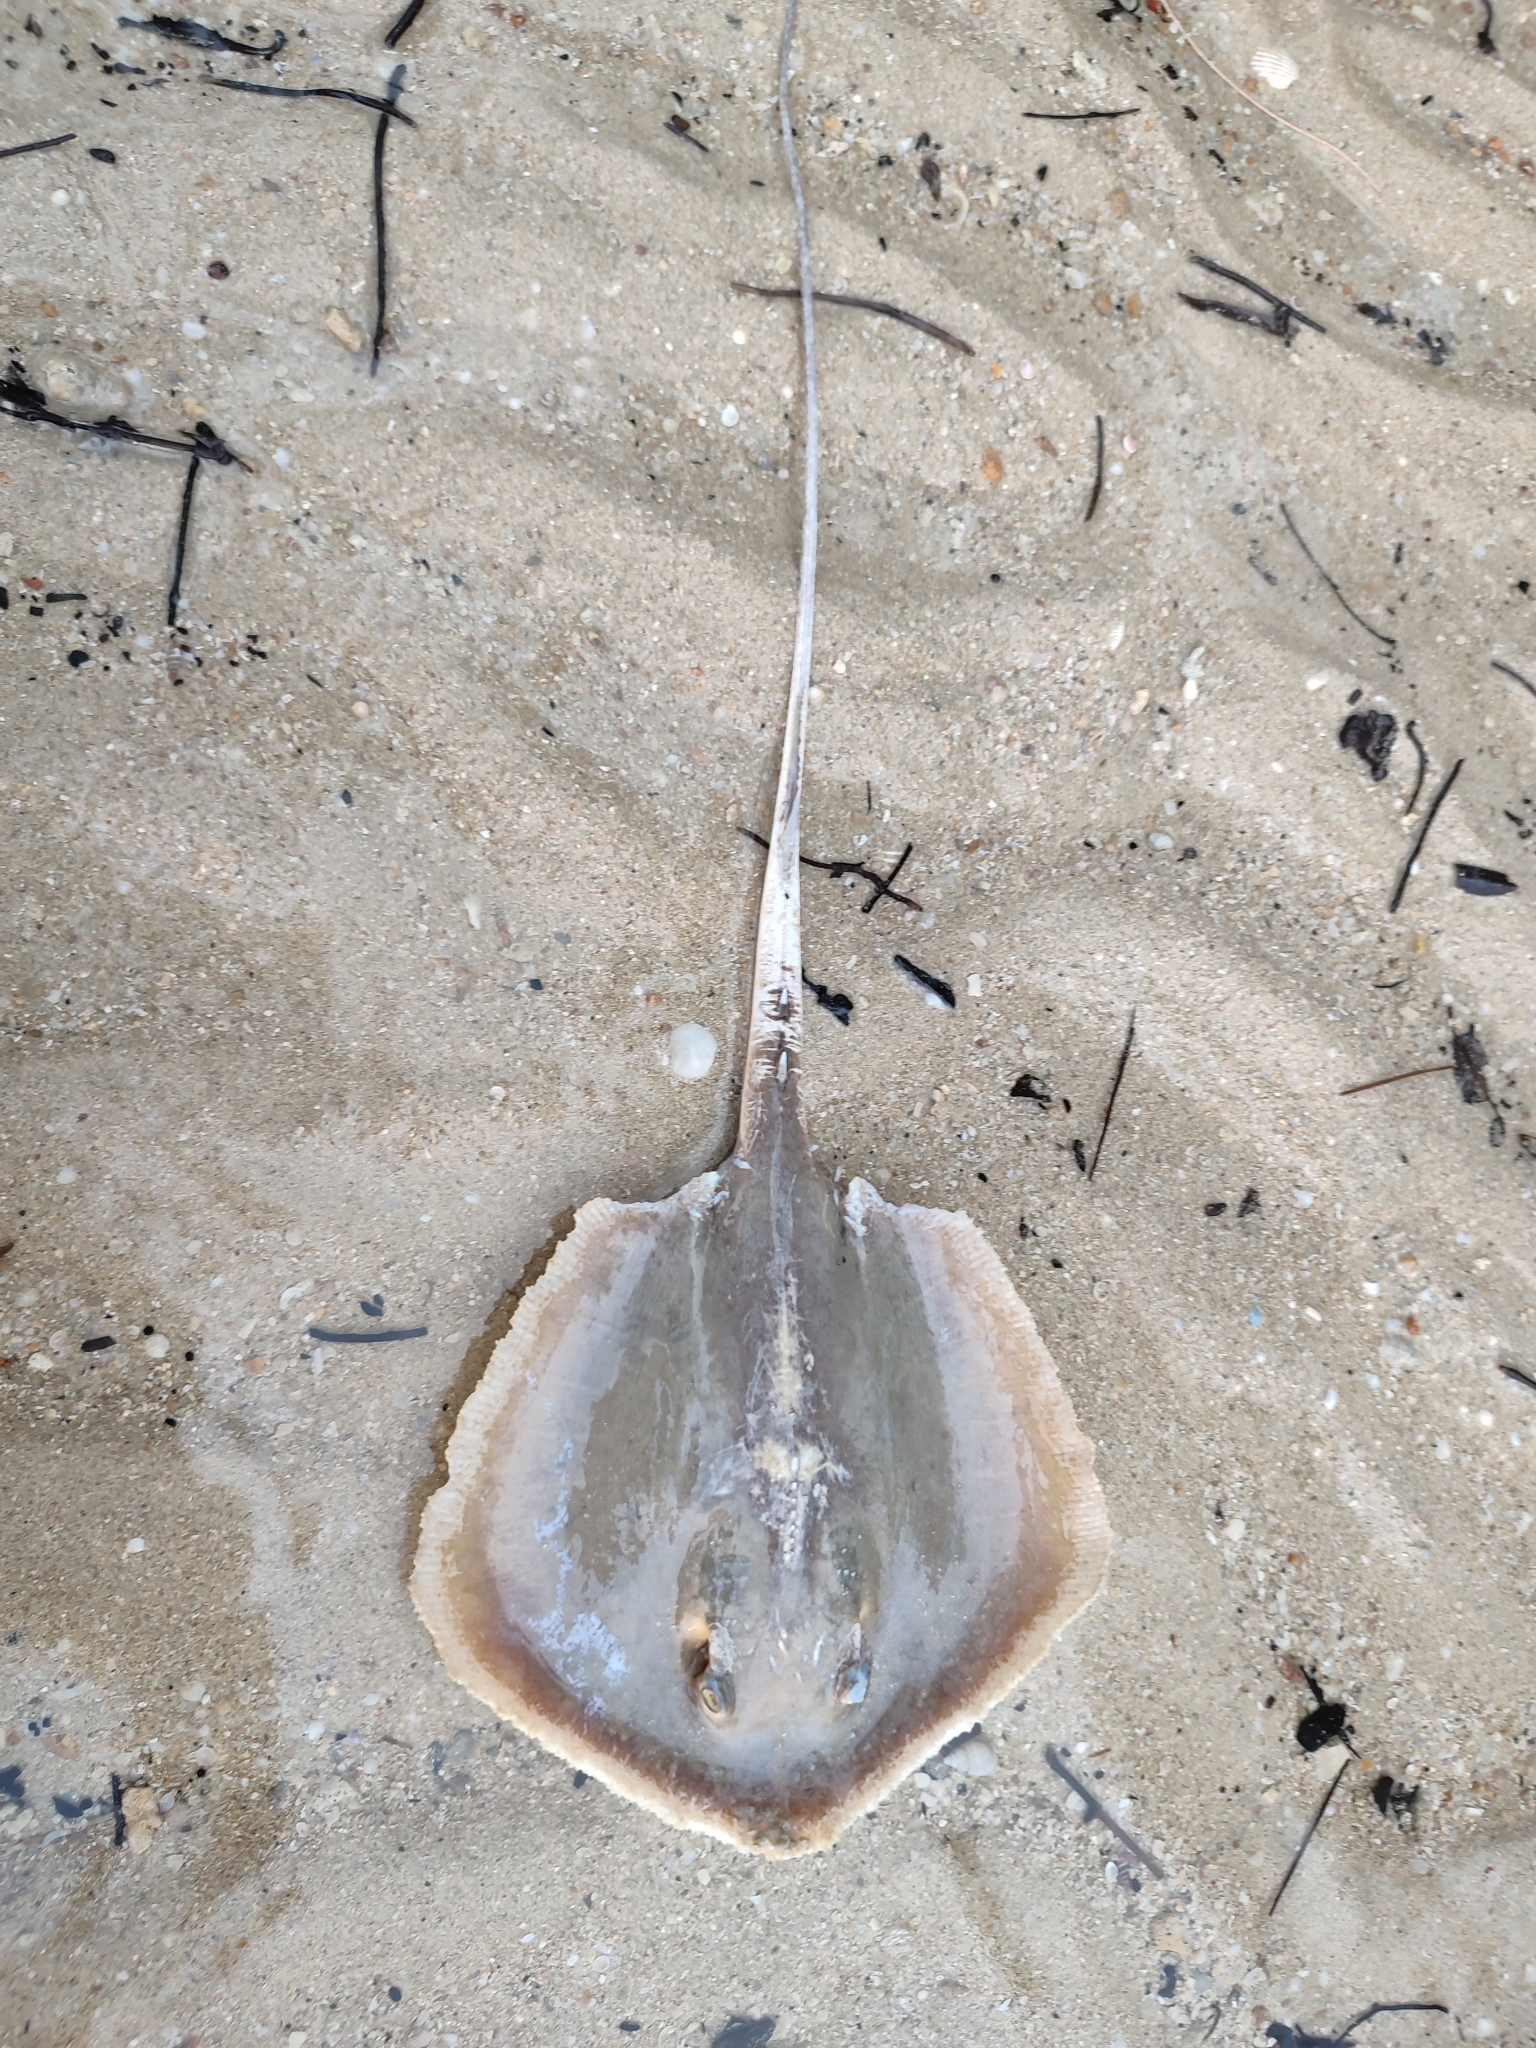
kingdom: Animalia
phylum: Chordata
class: Elasmobranchii
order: Myliobatiformes
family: Dasyatidae
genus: Hemitrygon
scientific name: Hemitrygon bennettii
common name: Bennett's stingray
